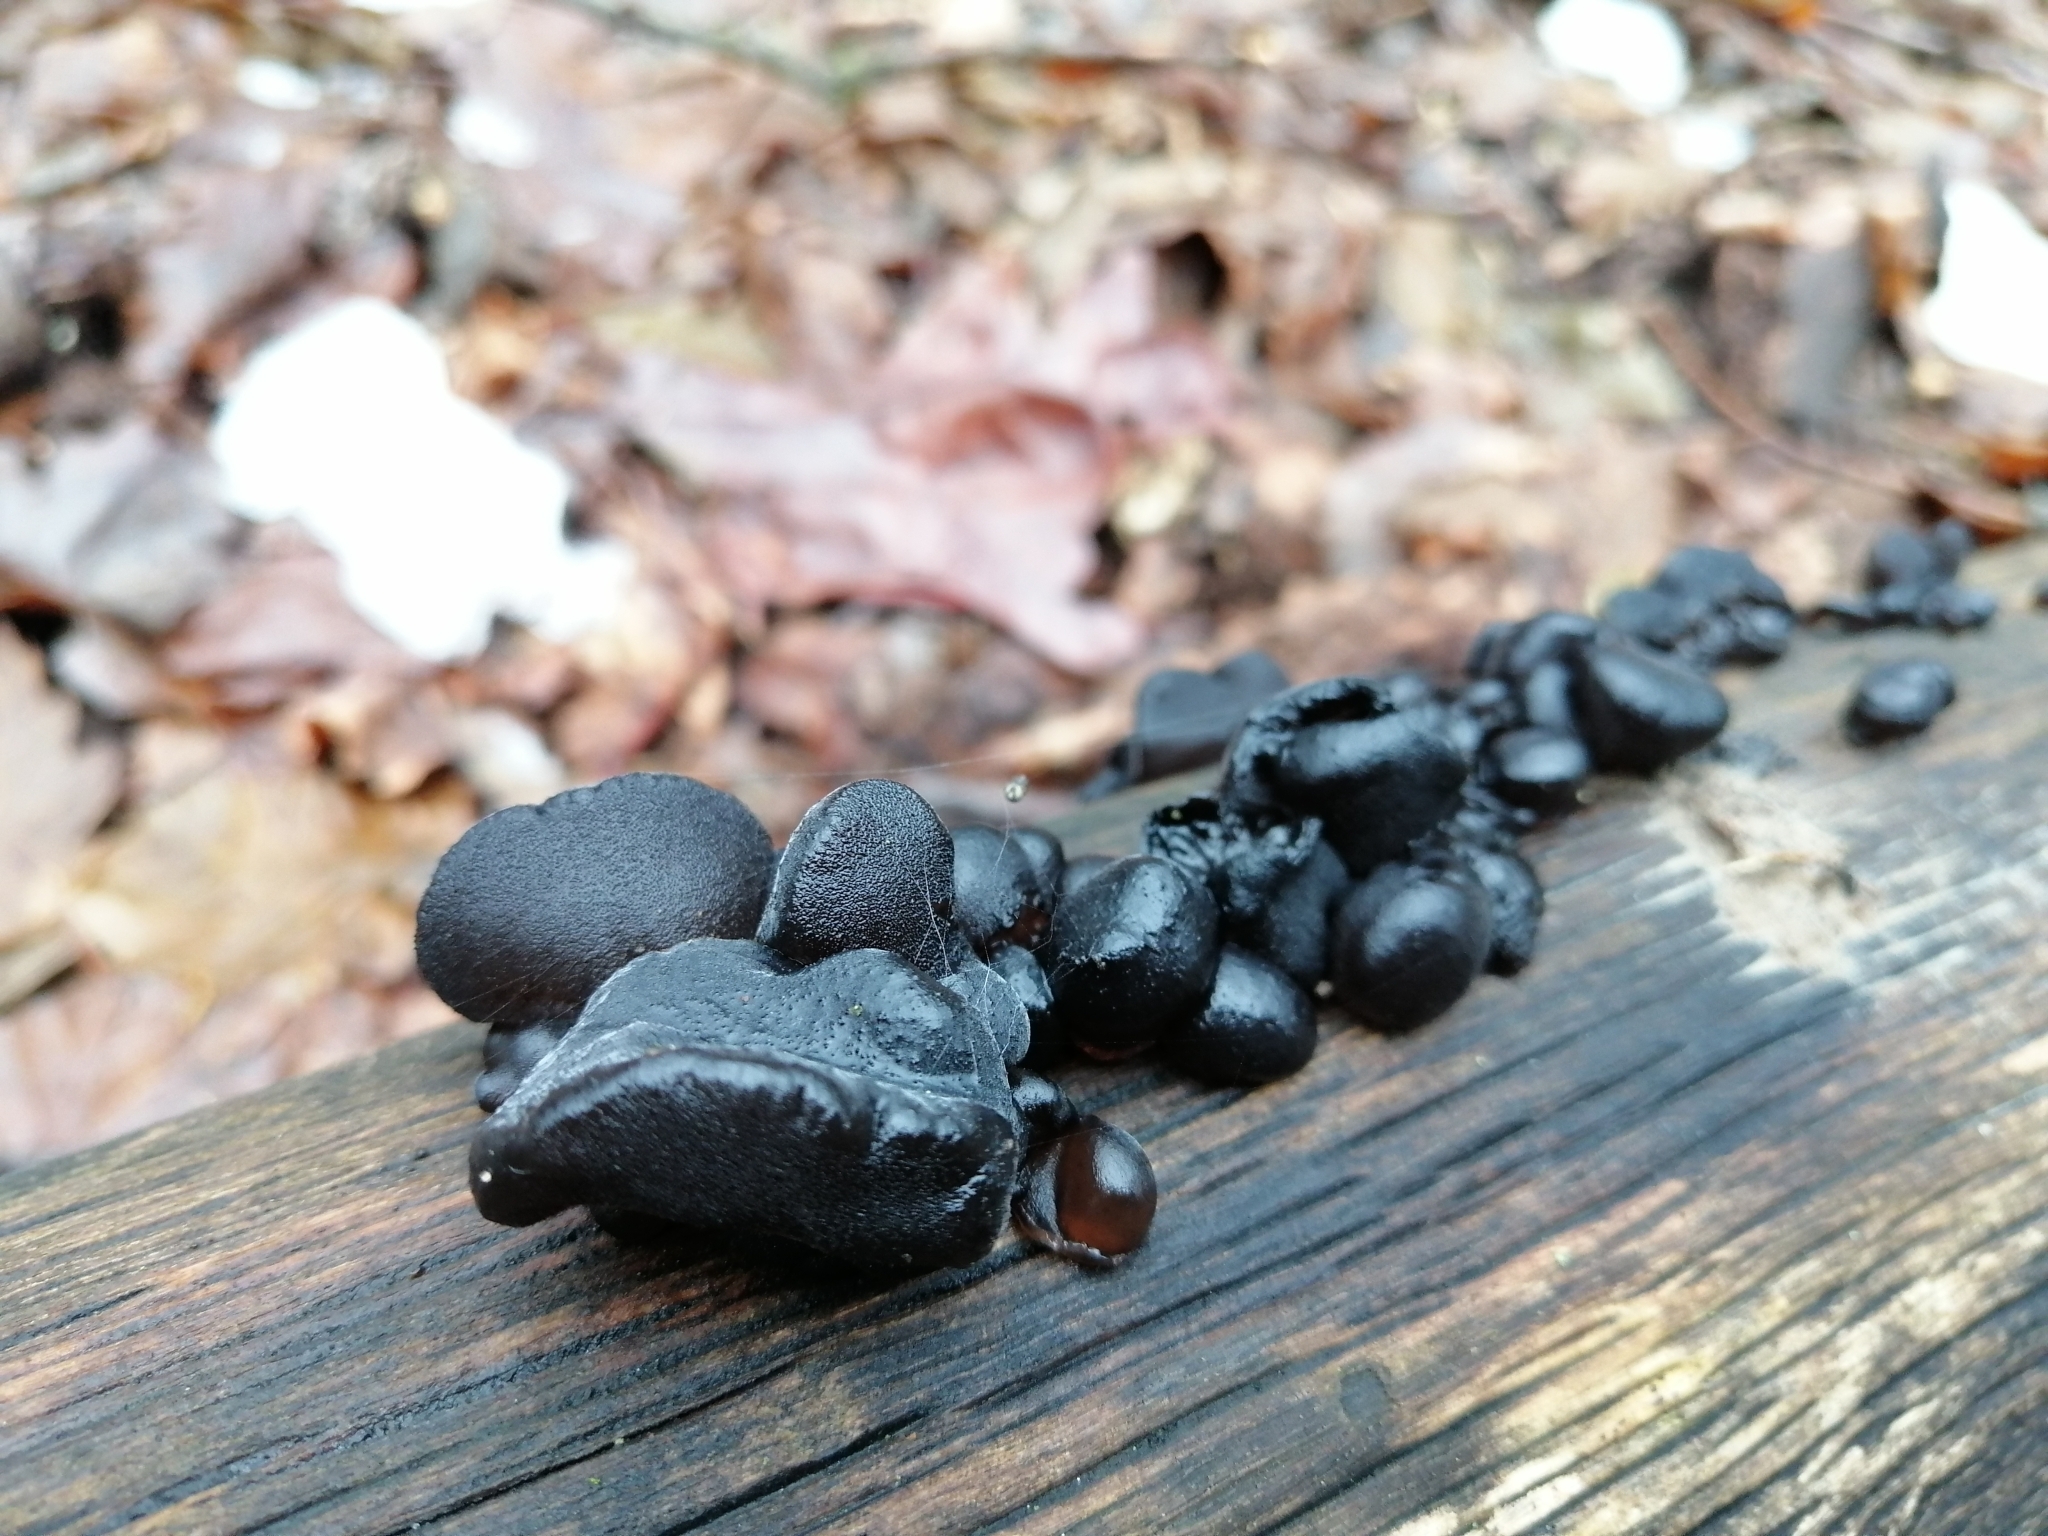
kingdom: Fungi
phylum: Basidiomycota
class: Agaricomycetes
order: Auriculariales
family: Auriculariaceae
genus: Exidia
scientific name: Exidia glandulosa
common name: Witches' butter
